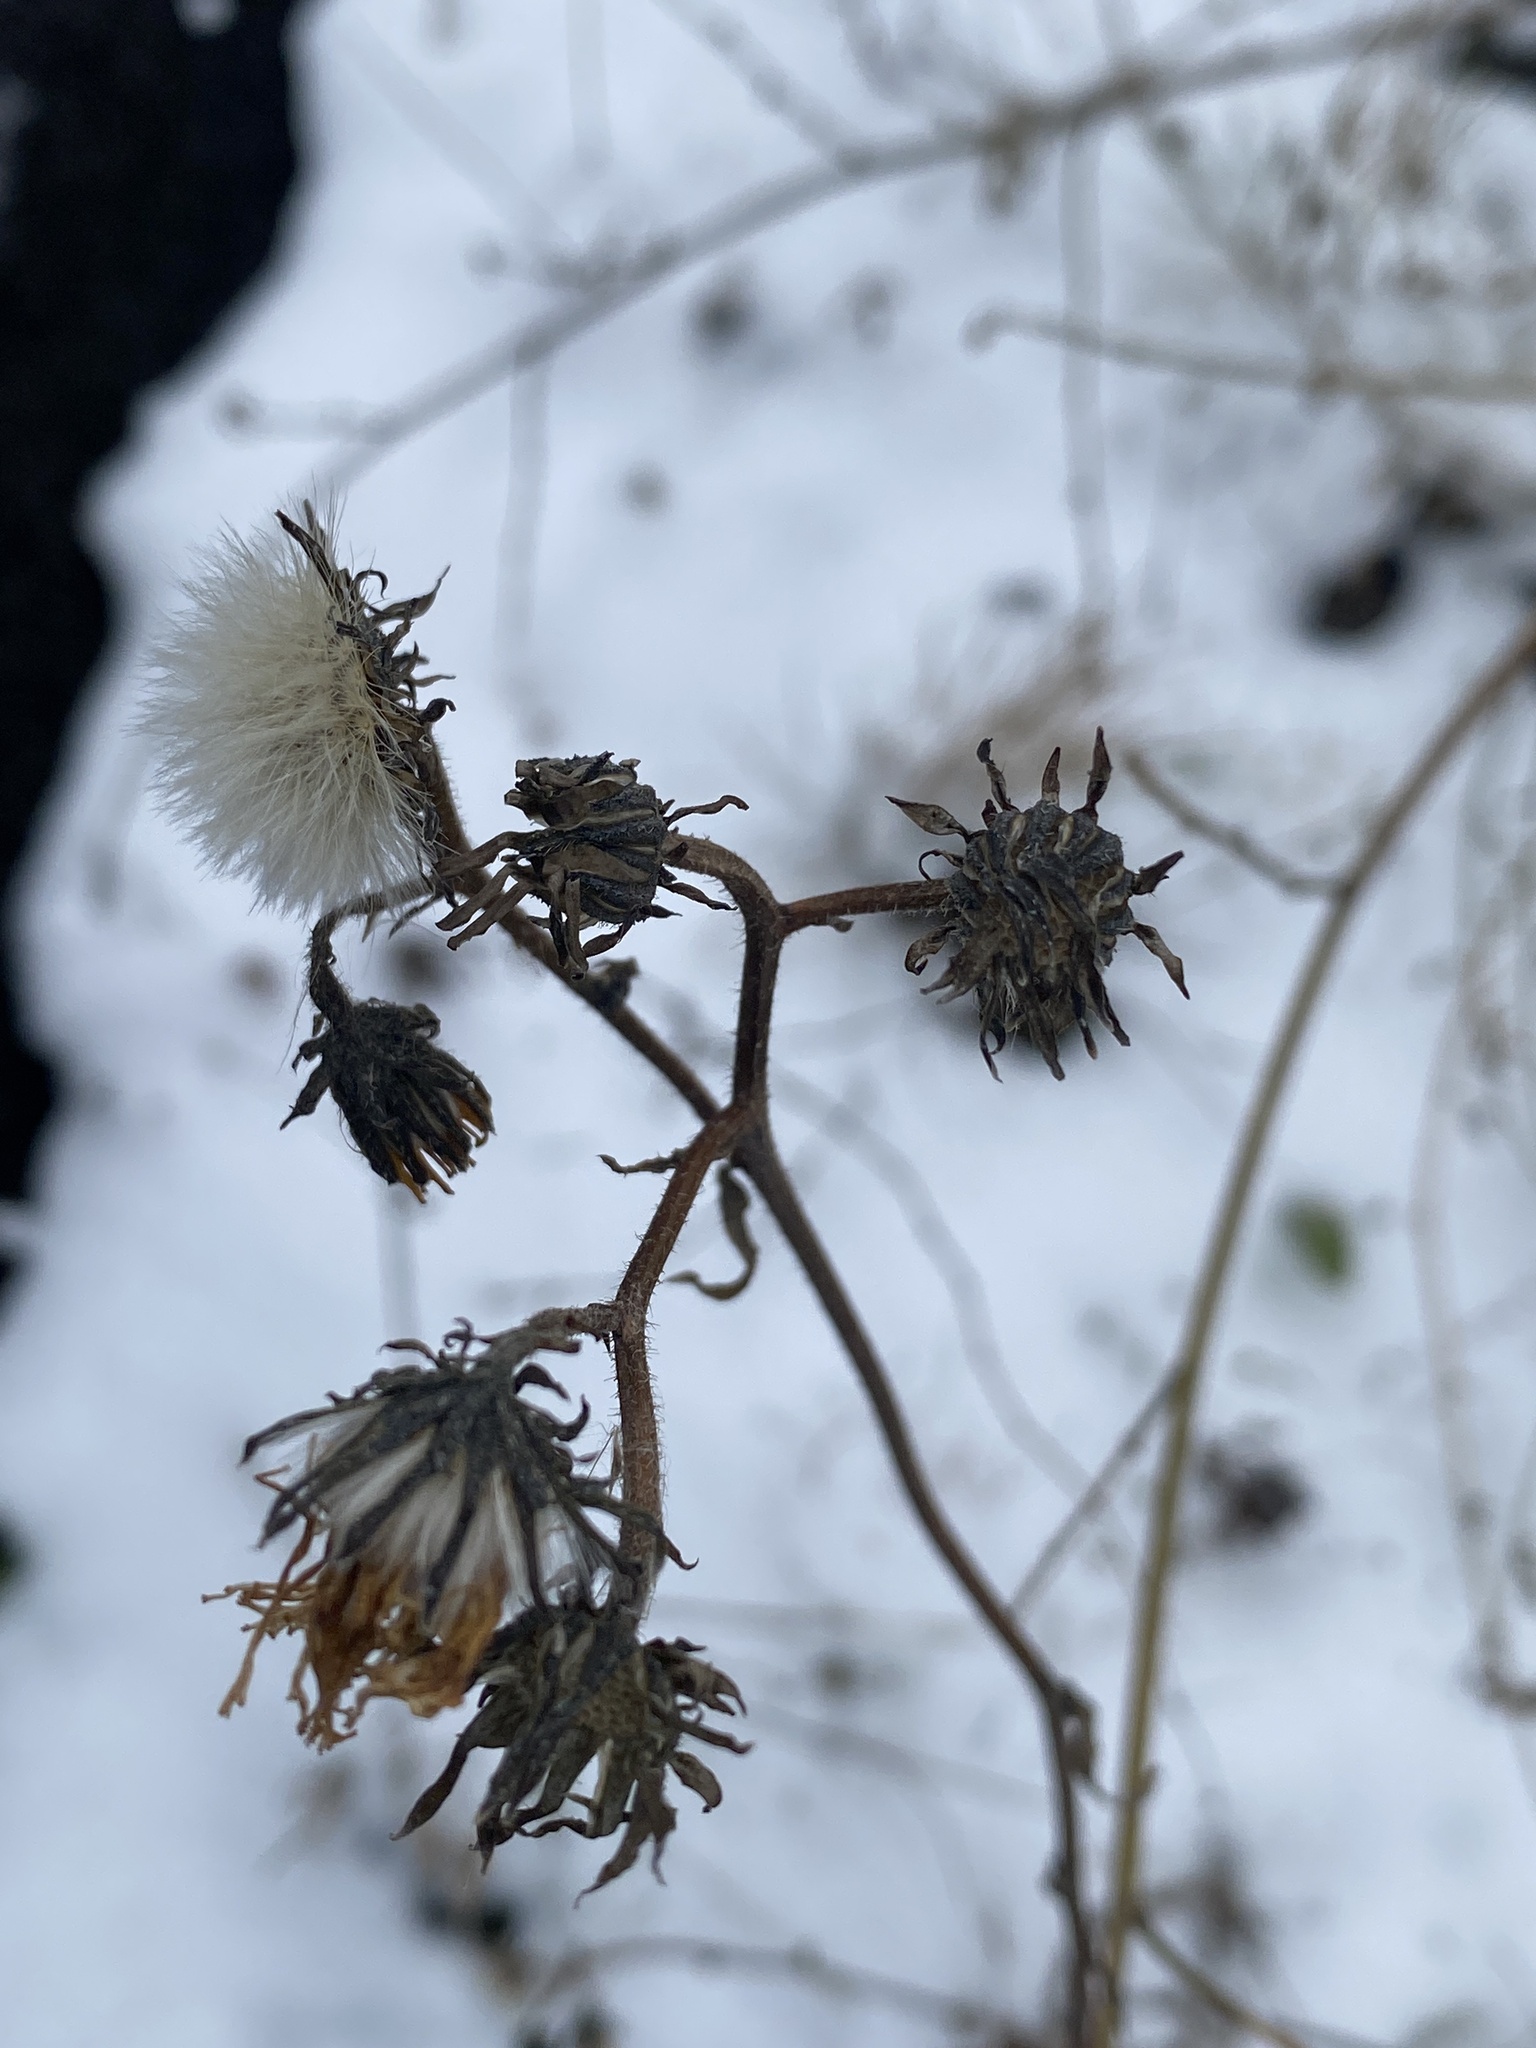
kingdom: Plantae
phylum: Tracheophyta
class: Magnoliopsida
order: Asterales
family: Asteraceae
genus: Picris
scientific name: Picris hieracioides
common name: Hawkweed oxtongue
